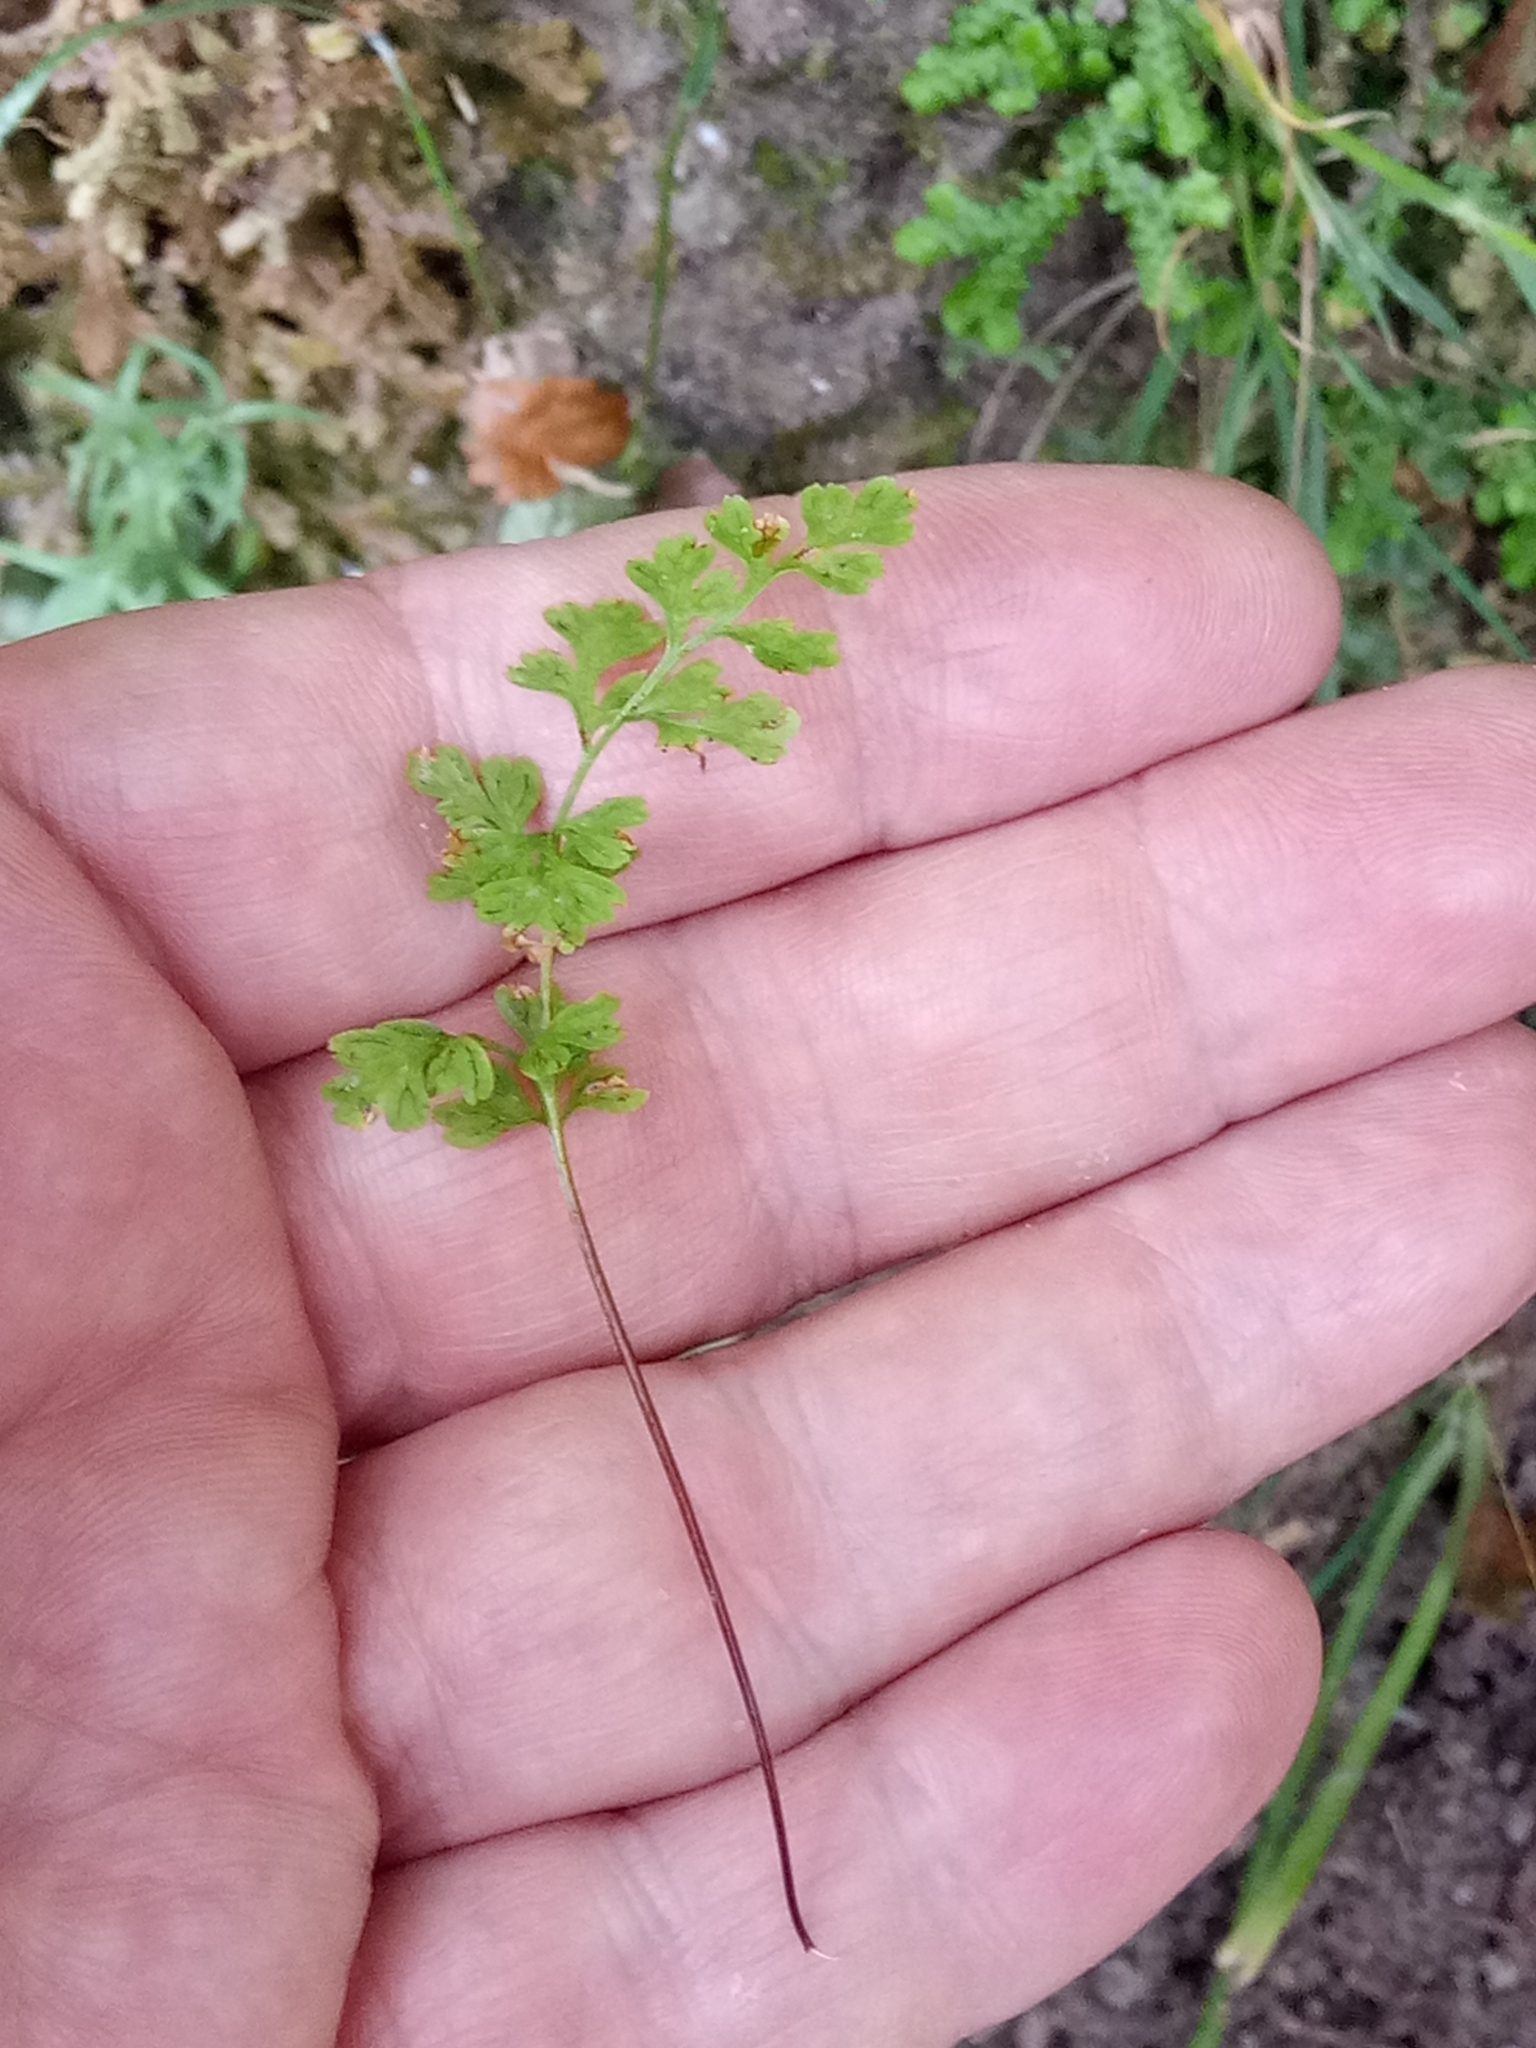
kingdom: Plantae
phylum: Tracheophyta
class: Polypodiopsida
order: Polypodiales
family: Pteridaceae
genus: Anogramma
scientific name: Anogramma leptophylla
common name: Jersey fern
